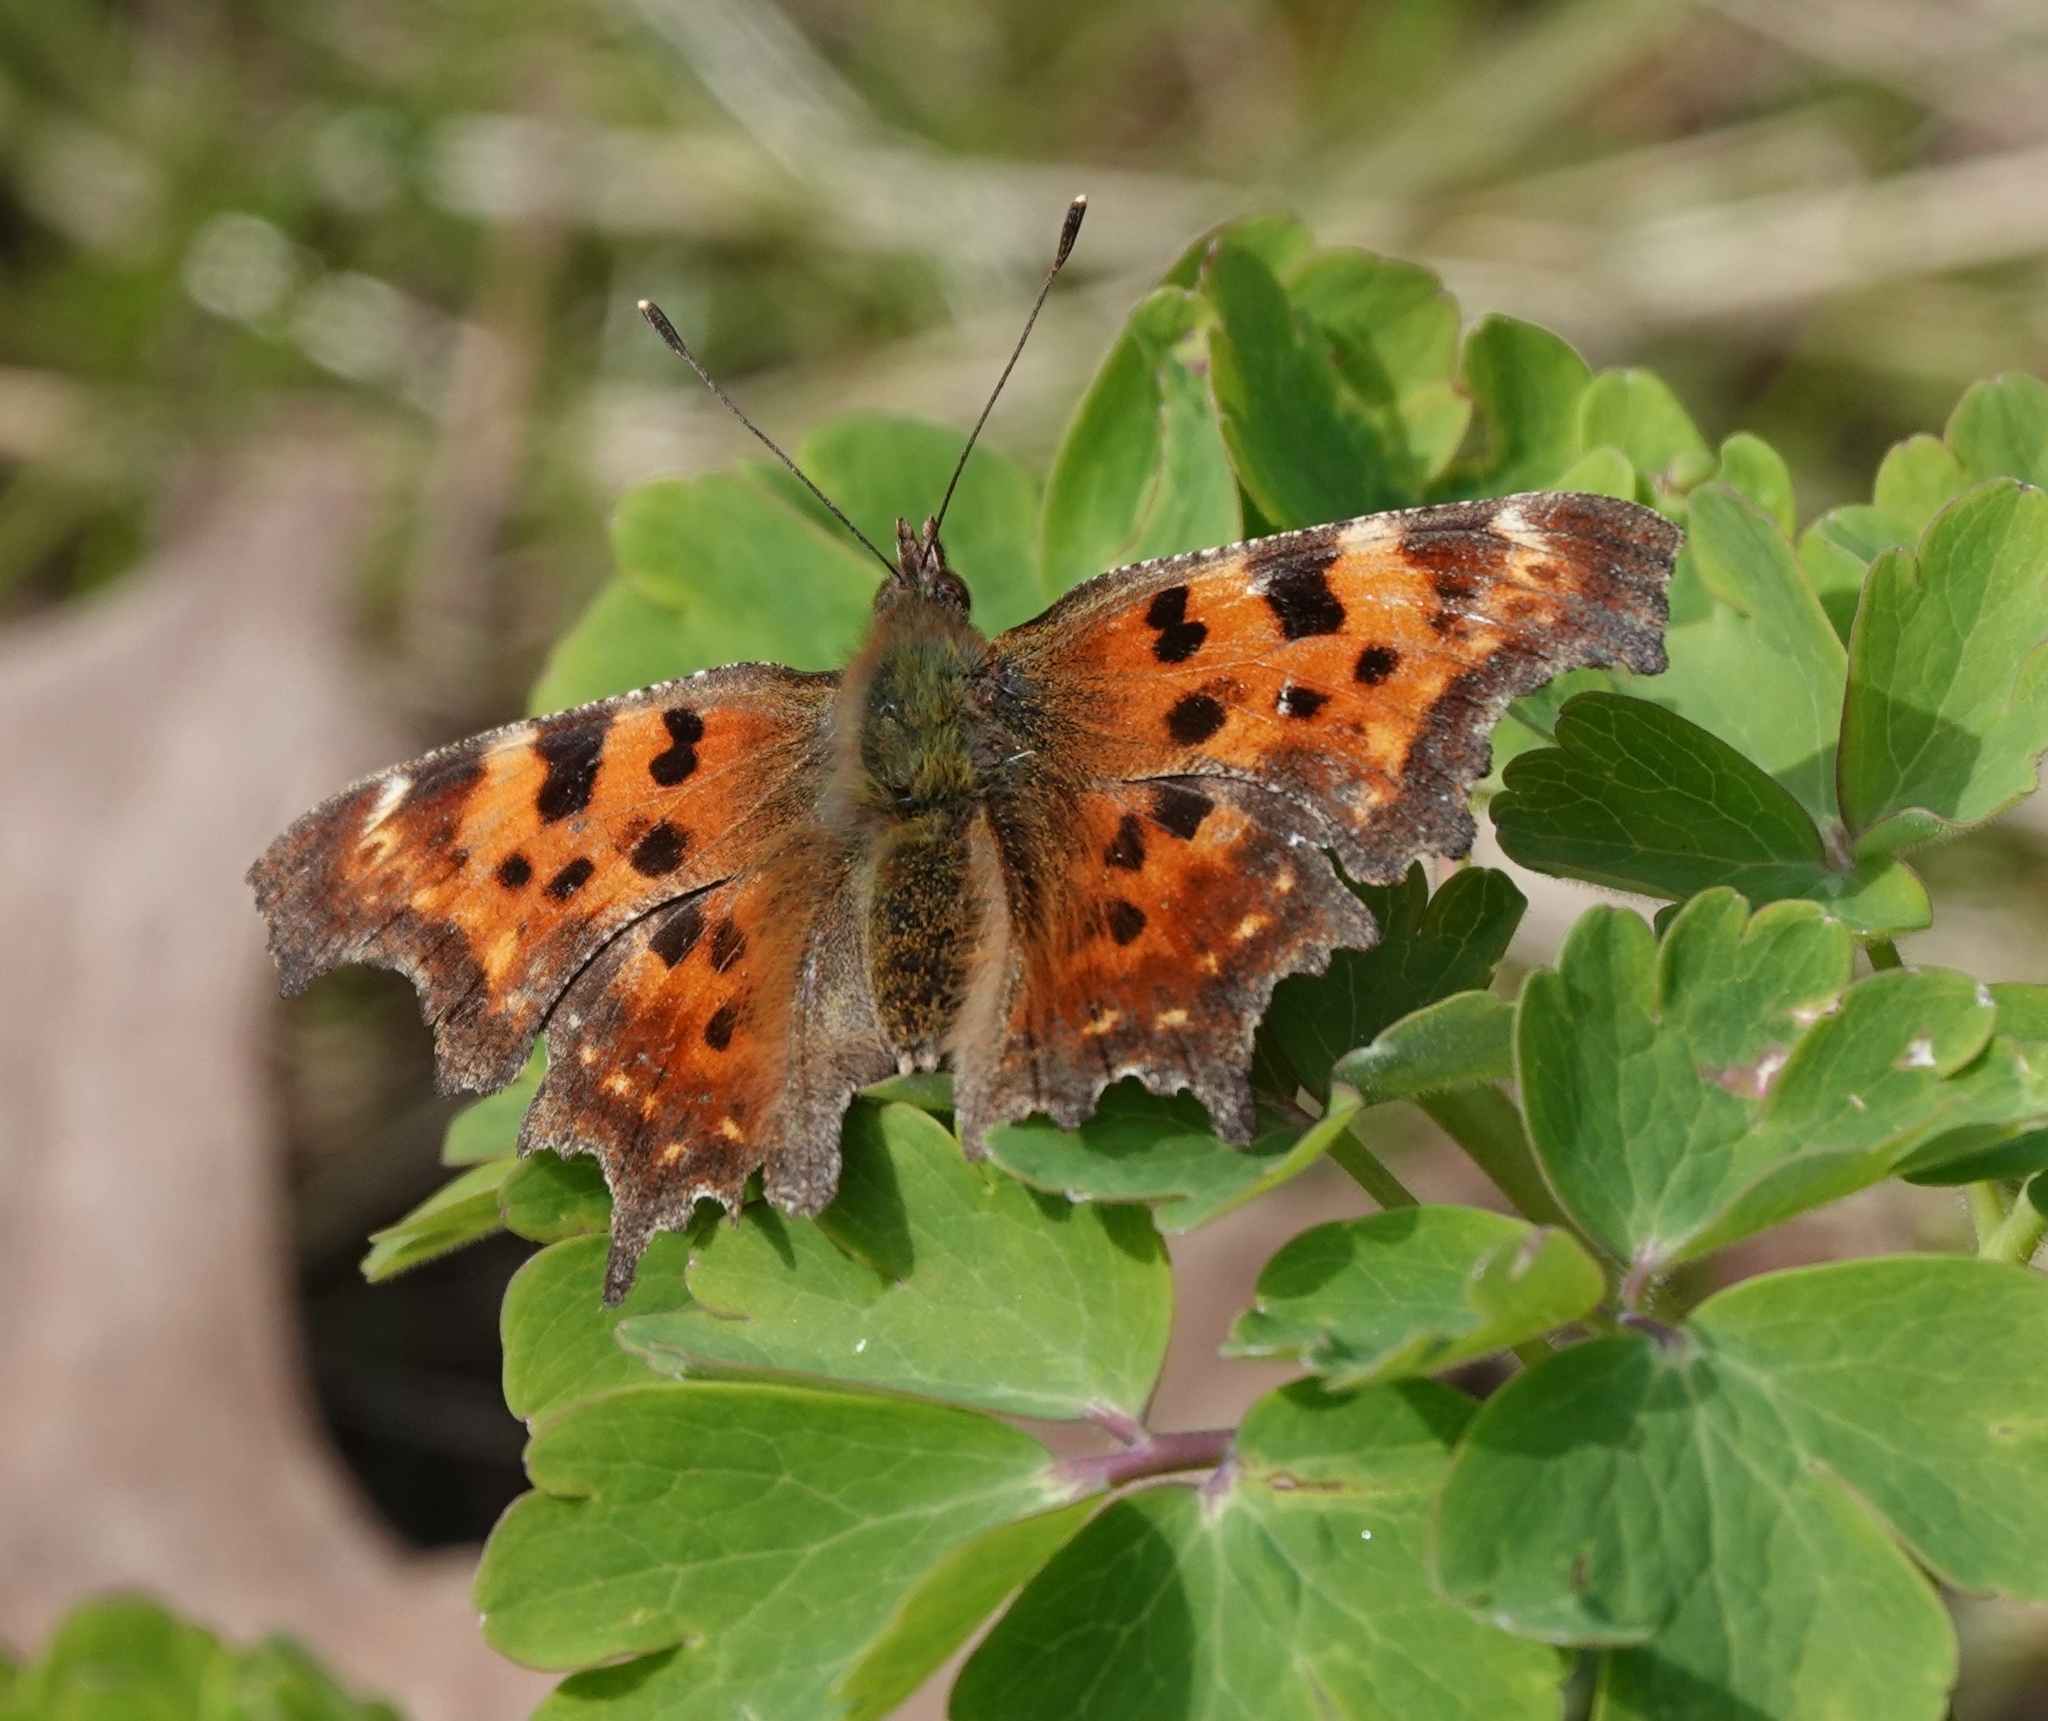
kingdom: Animalia
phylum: Arthropoda
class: Insecta
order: Lepidoptera
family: Nymphalidae
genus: Polygonia
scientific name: Polygonia c-album
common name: Comma
